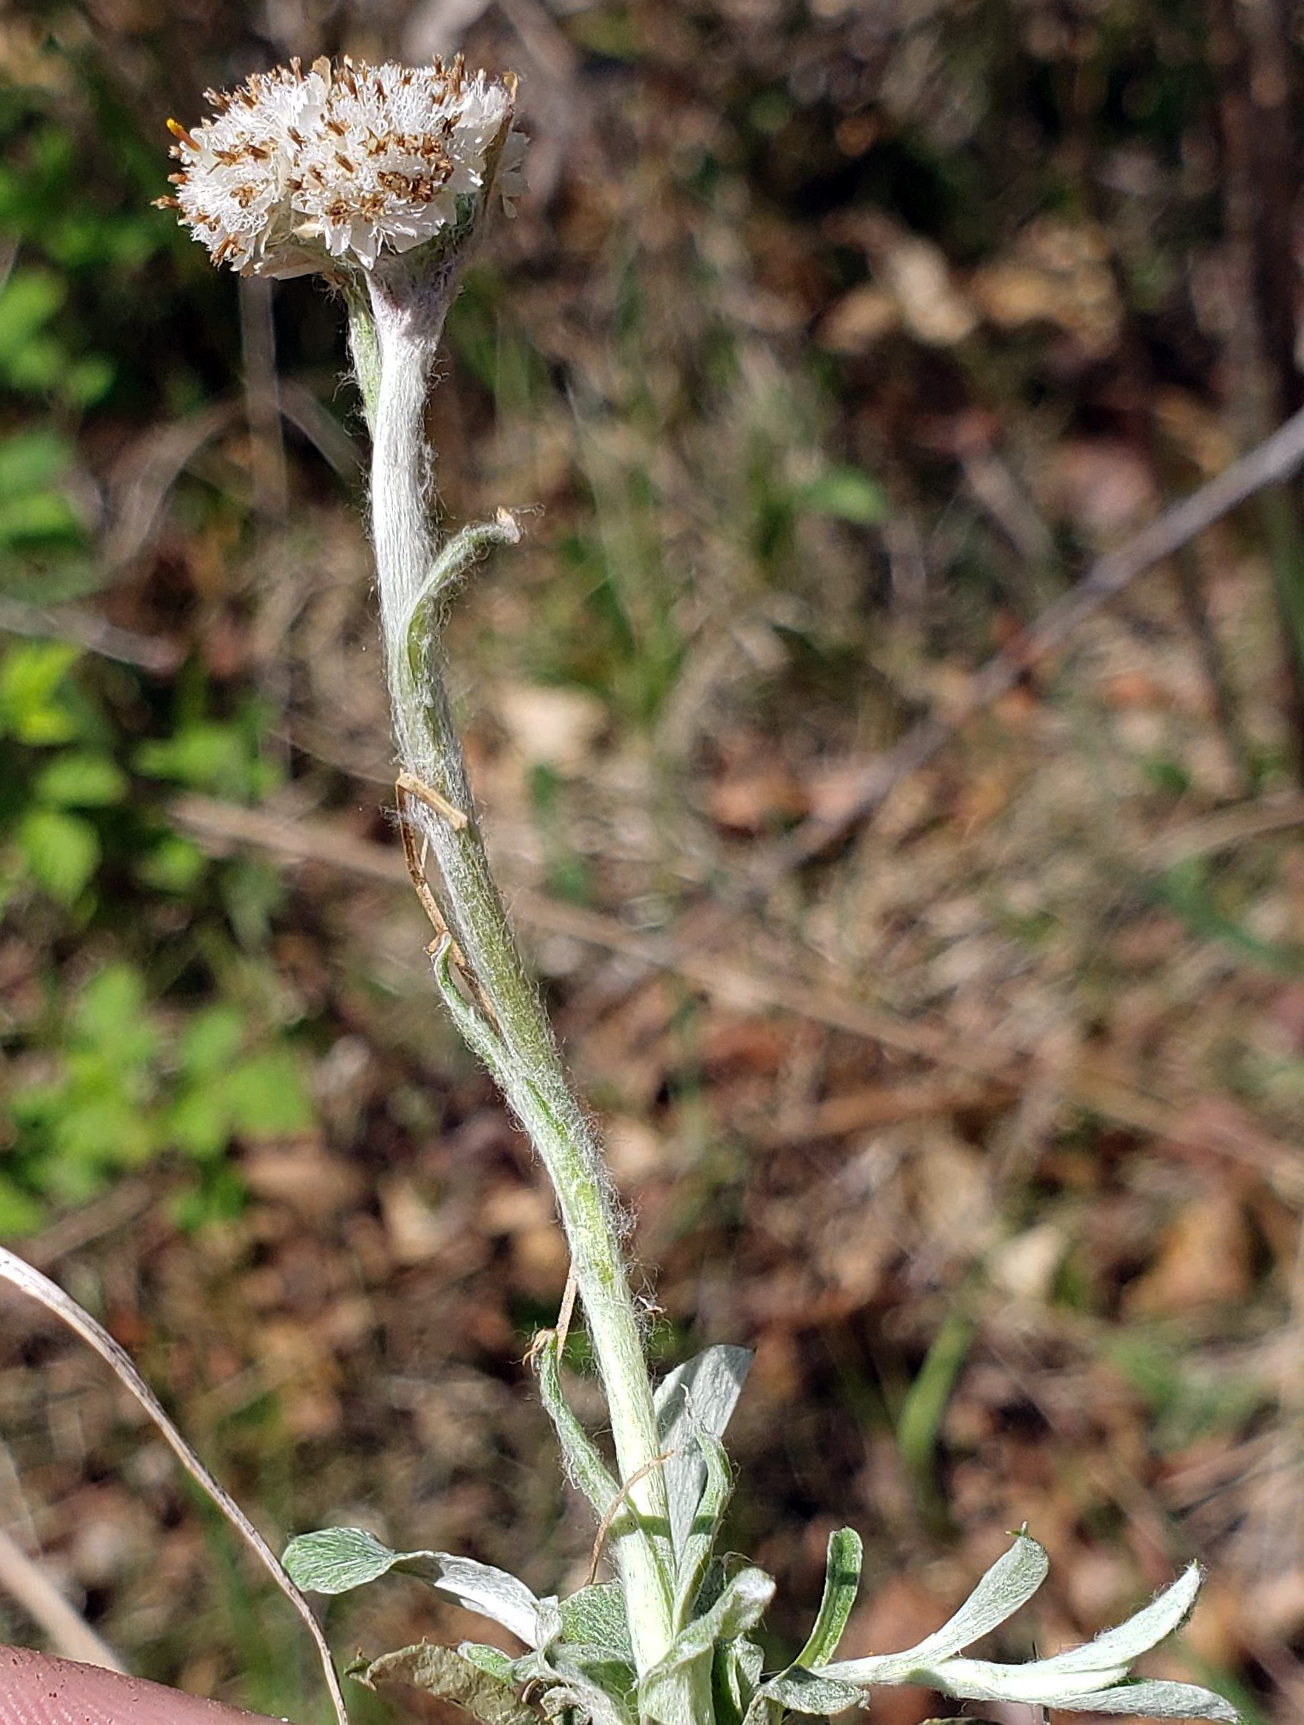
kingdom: Plantae
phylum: Tracheophyta
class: Magnoliopsida
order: Asterales
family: Asteraceae
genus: Antennaria
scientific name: Antennaria neglecta
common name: Field pussytoes
